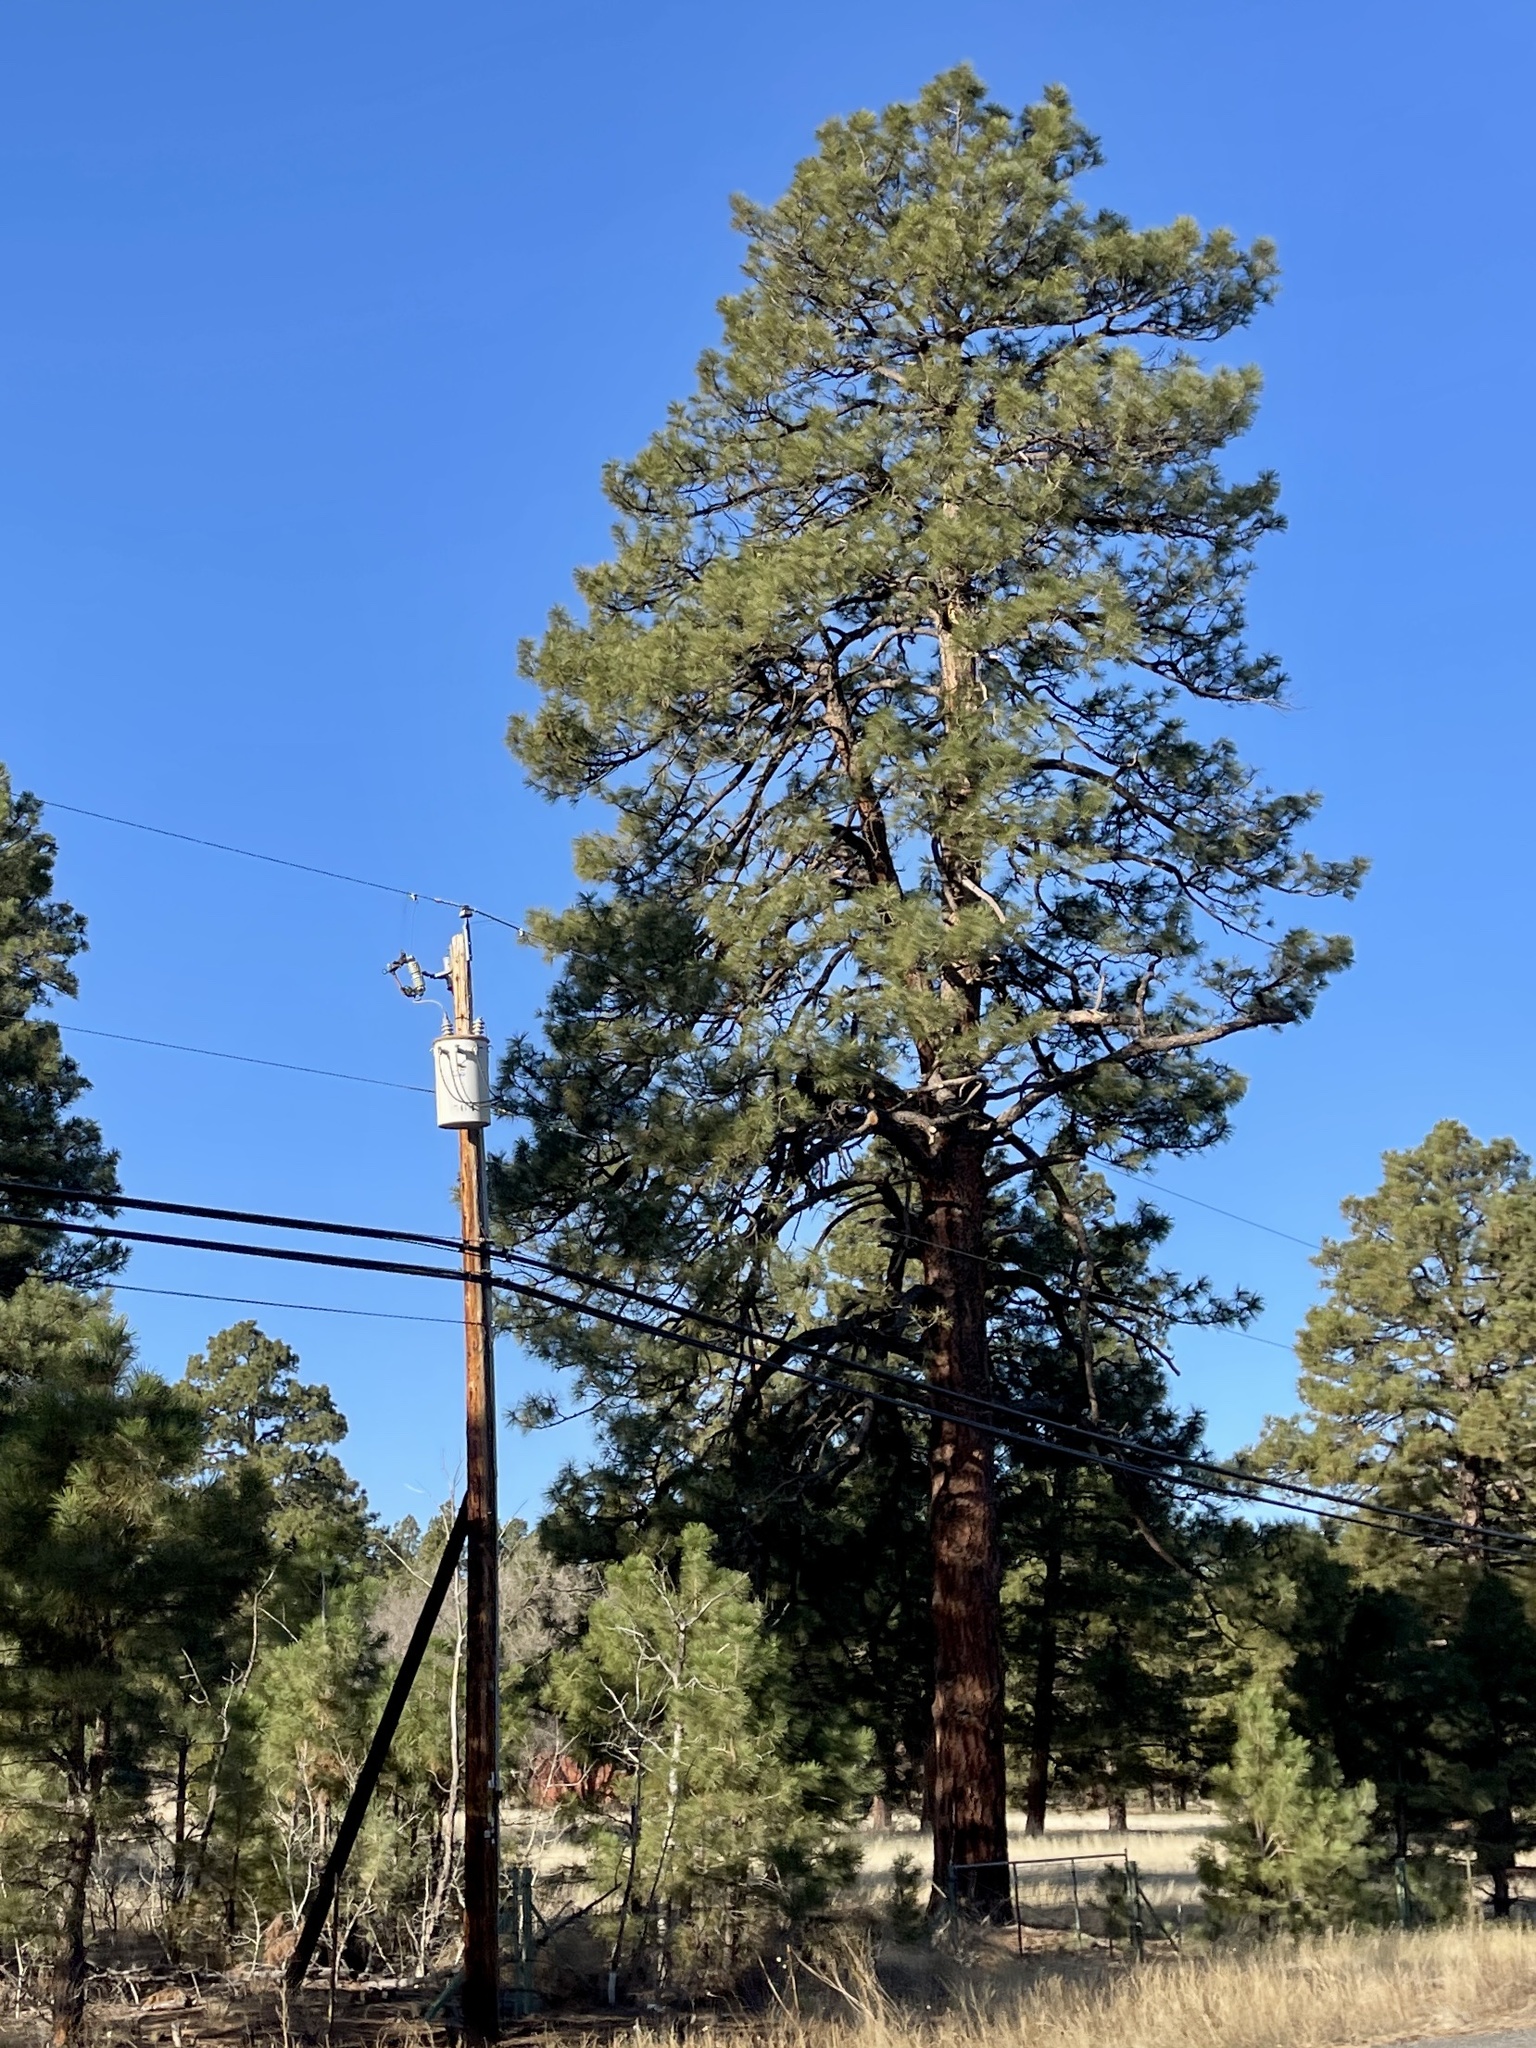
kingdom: Plantae
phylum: Tracheophyta
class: Pinopsida
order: Pinales
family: Pinaceae
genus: Pinus
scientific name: Pinus ponderosa
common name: Western yellow-pine
